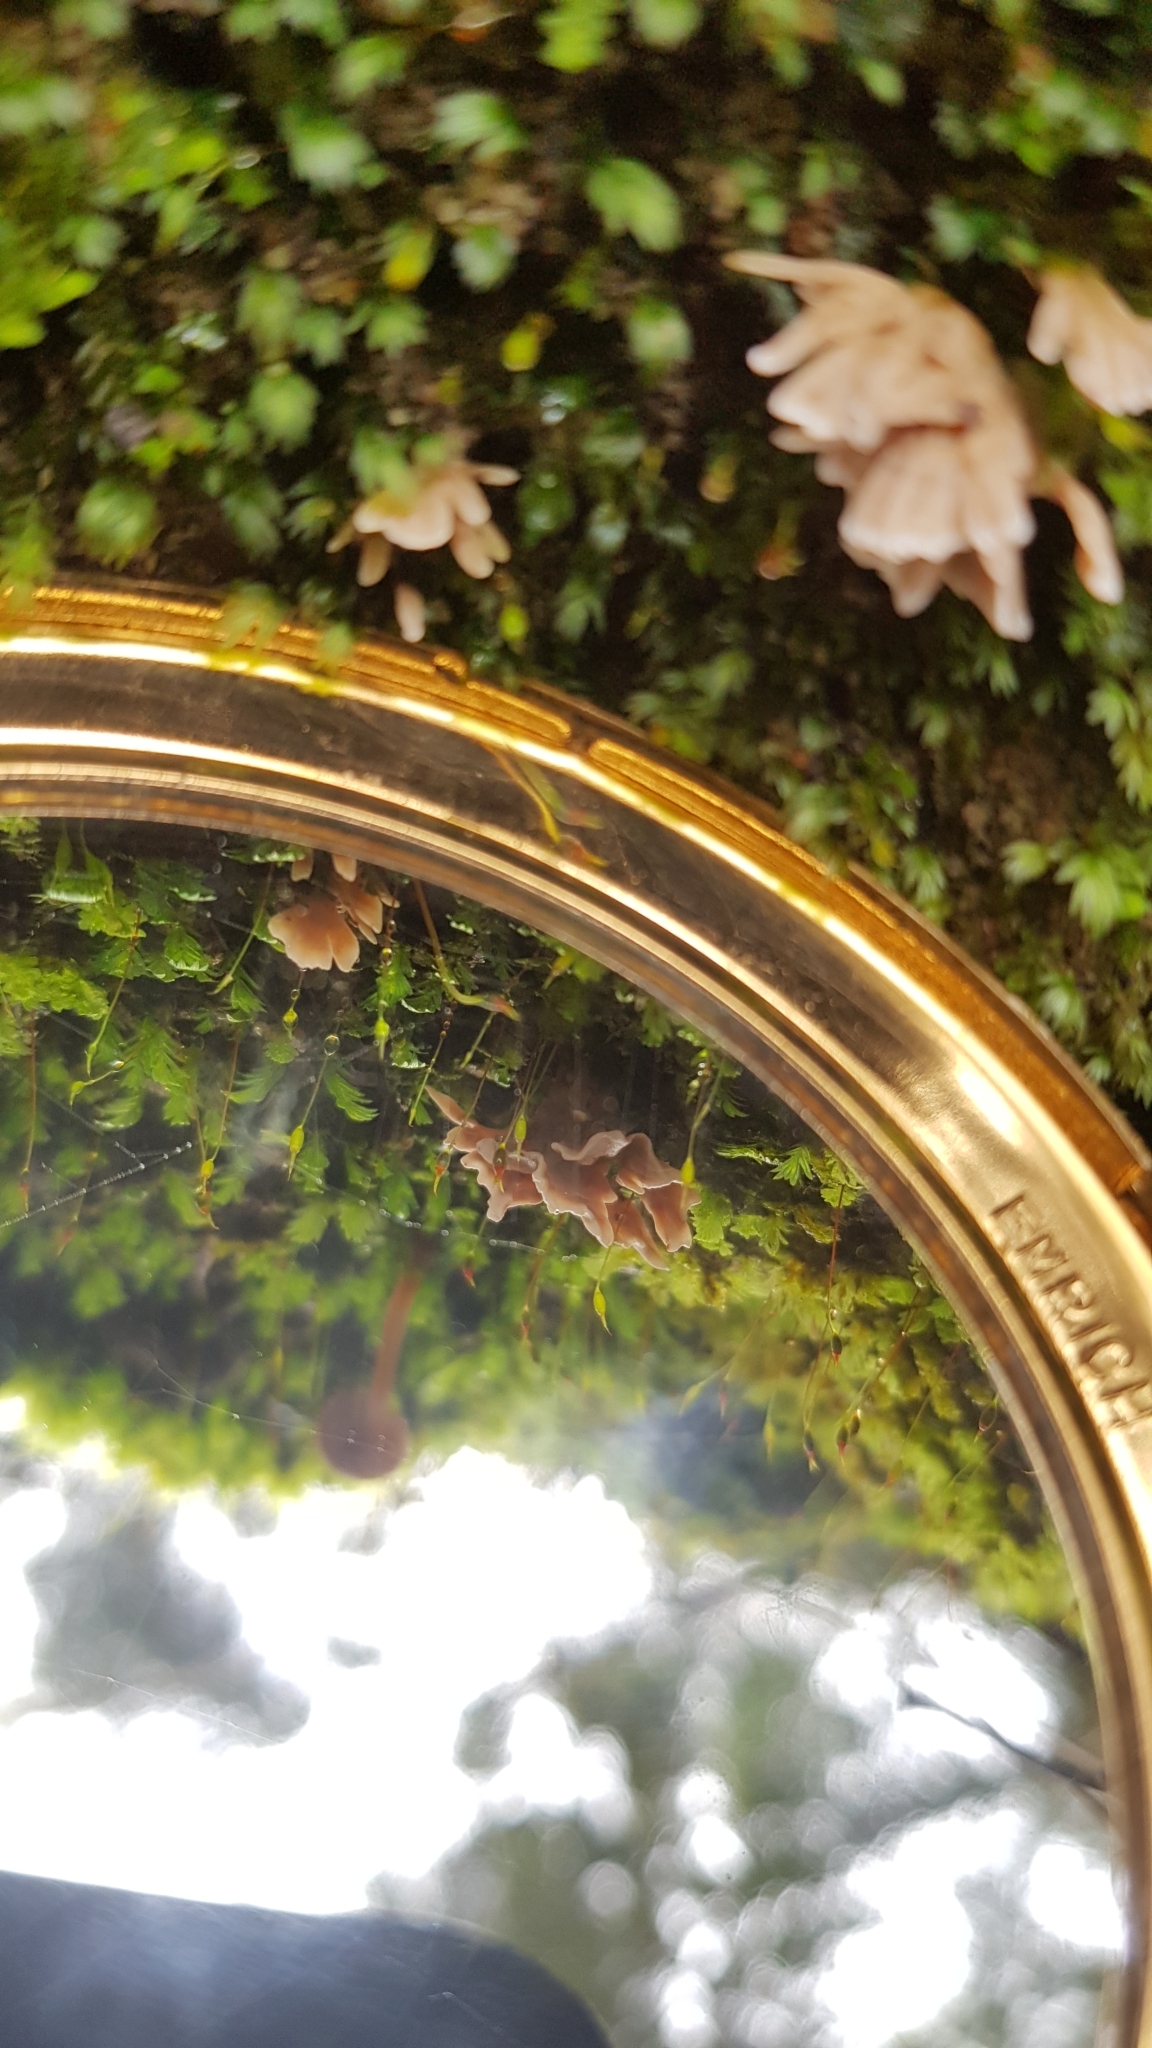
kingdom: Fungi
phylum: Basidiomycota
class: Agaricomycetes
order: Stereopsidales
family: Stereopsidaceae
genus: Stereopsis
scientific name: Stereopsis hiscens
